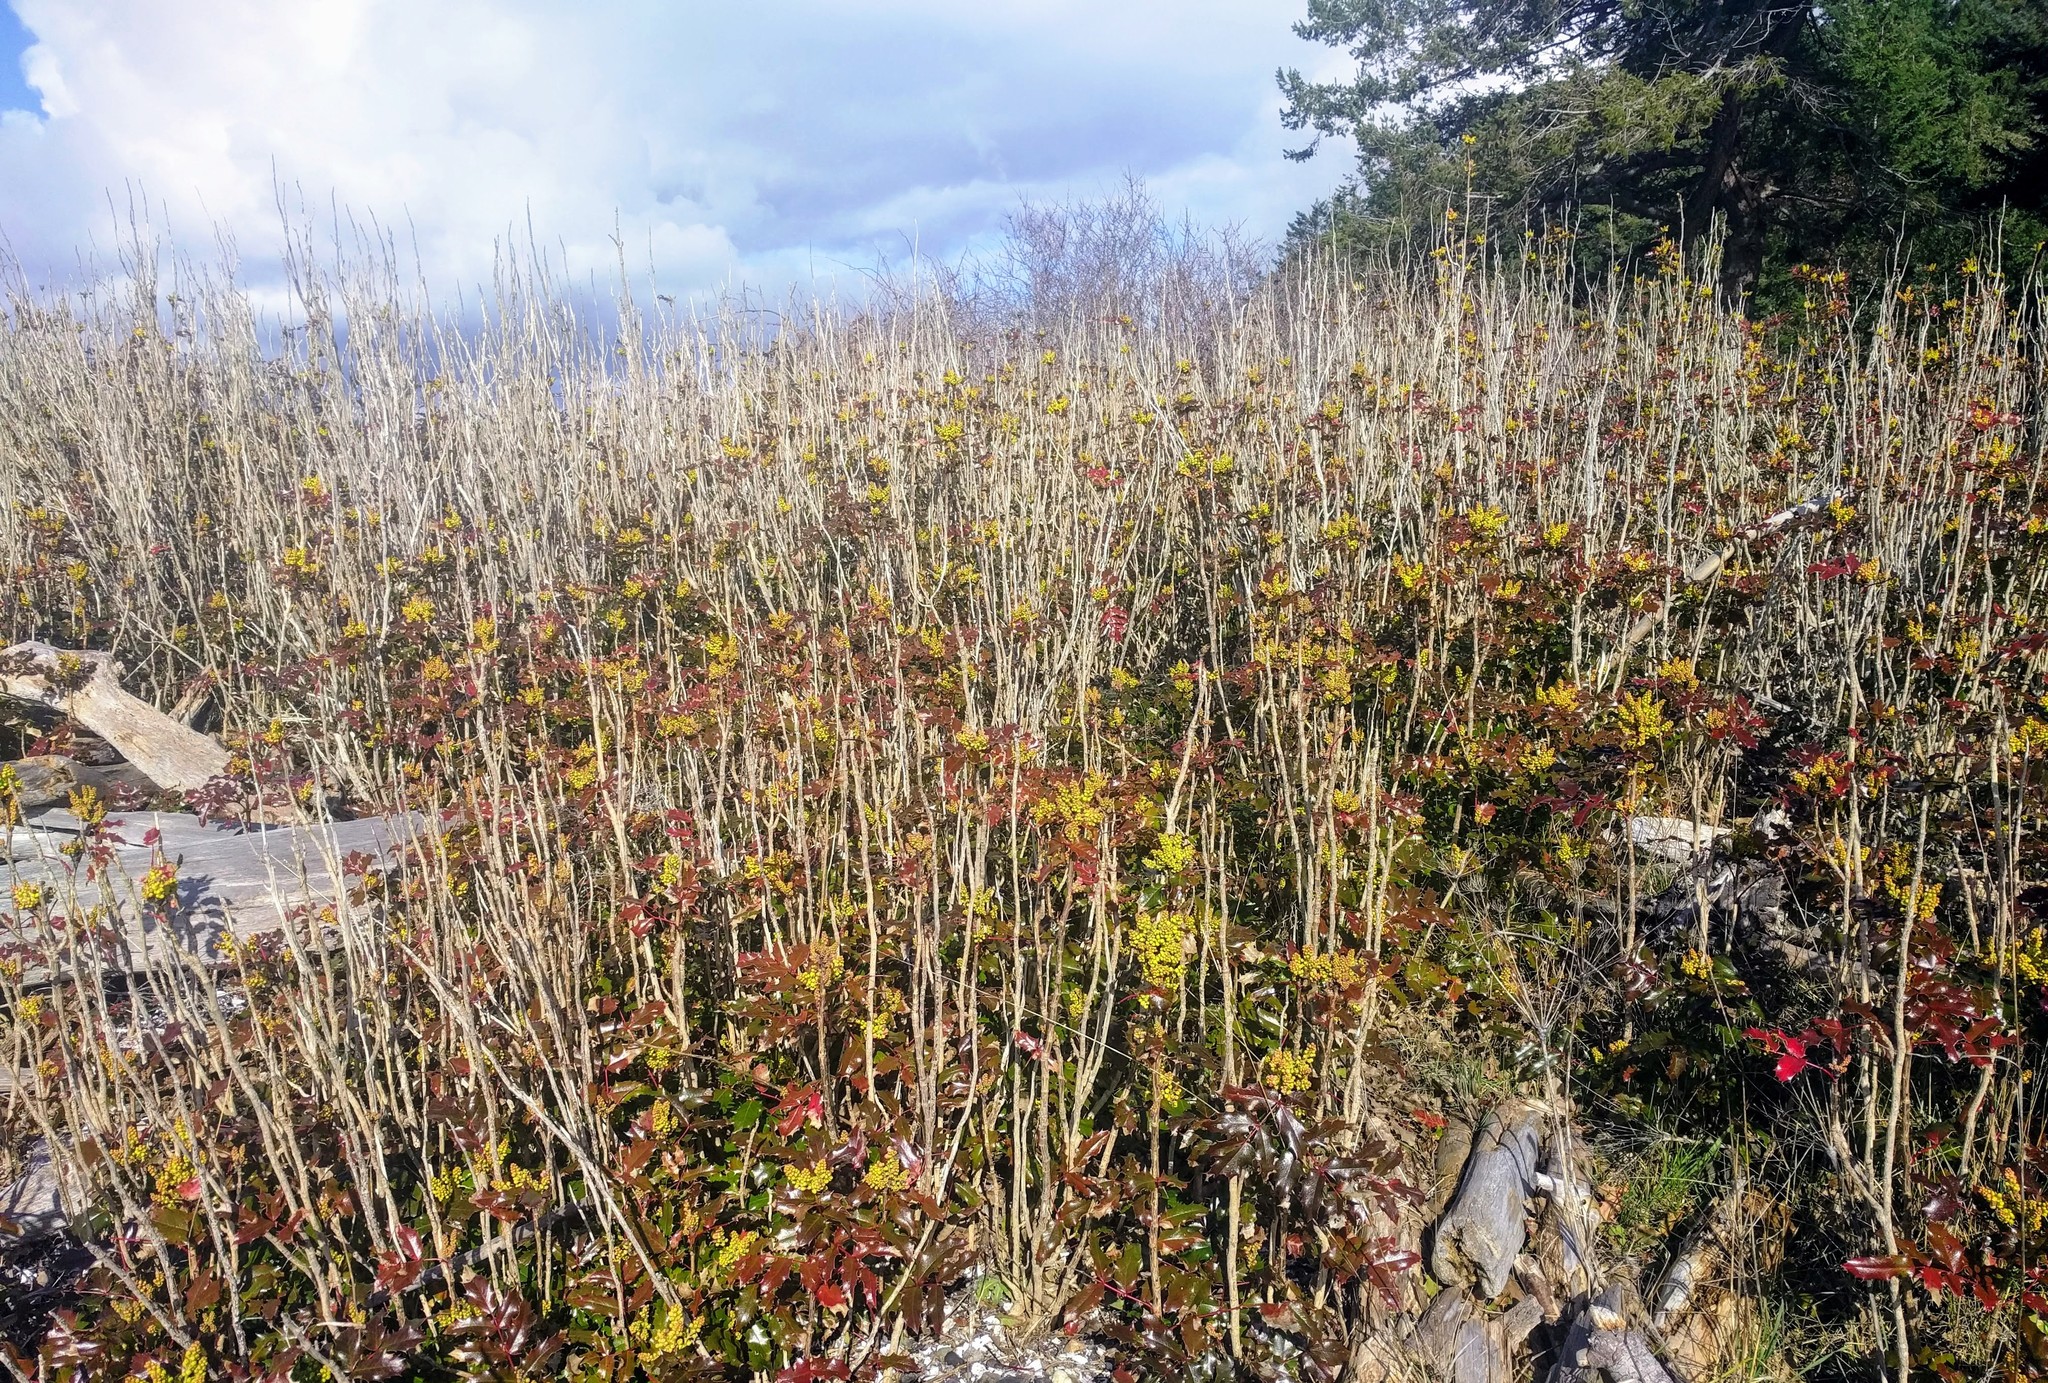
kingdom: Plantae
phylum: Tracheophyta
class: Magnoliopsida
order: Ranunculales
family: Berberidaceae
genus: Mahonia
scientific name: Mahonia aquifolium
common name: Oregon-grape
